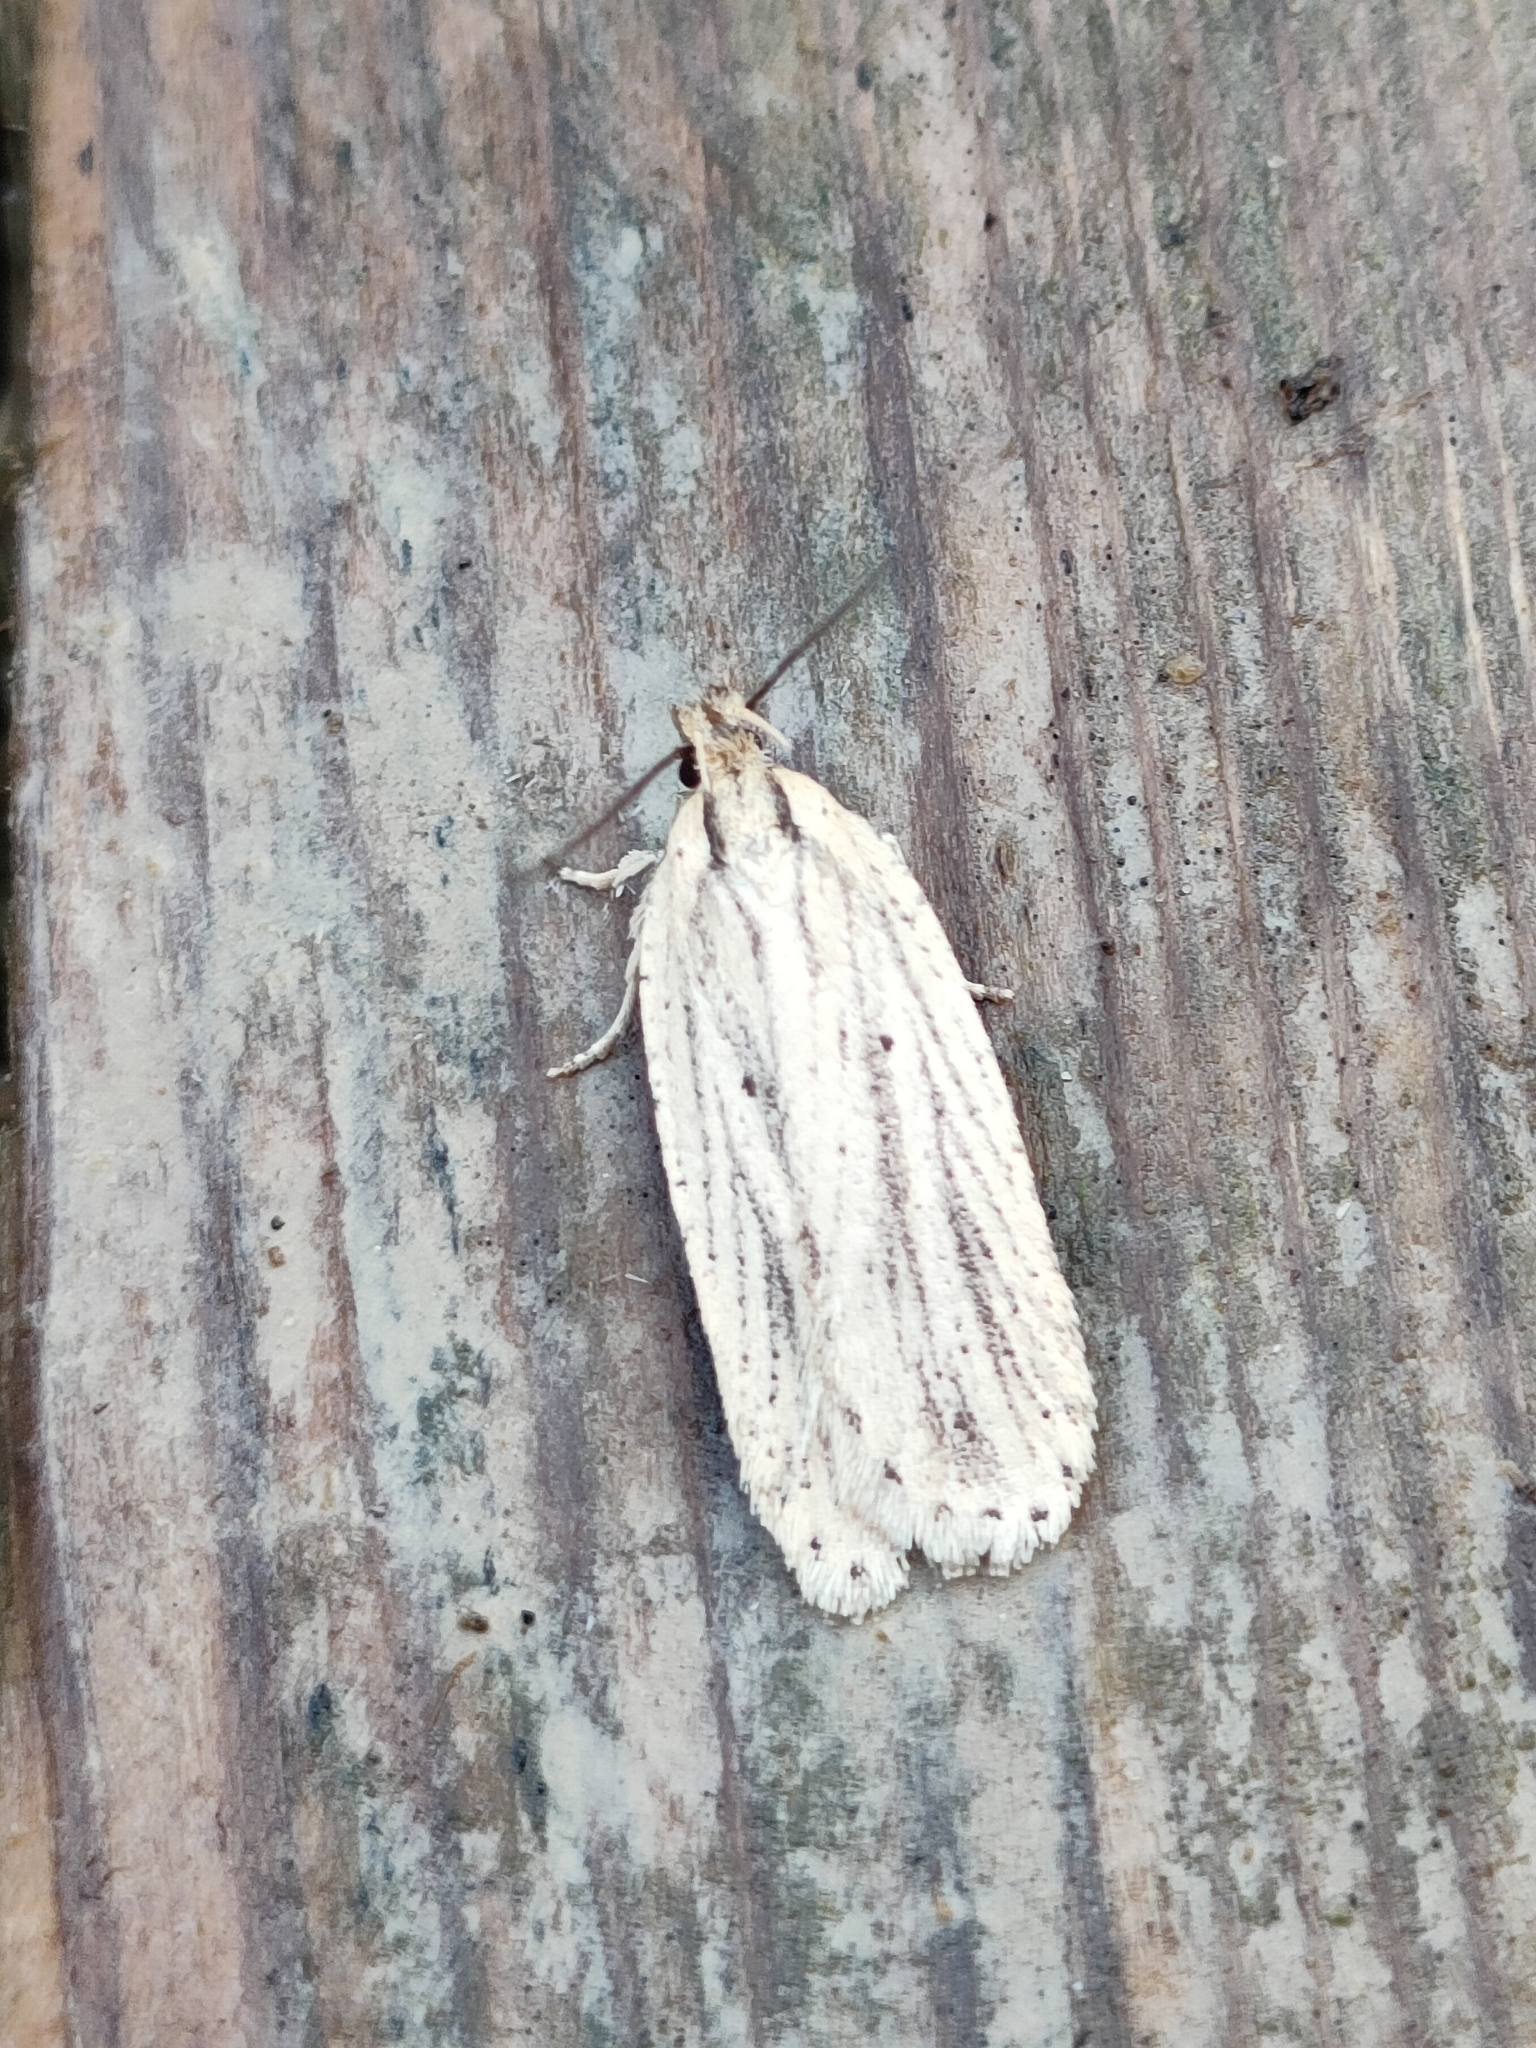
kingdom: Animalia
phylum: Arthropoda
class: Insecta
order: Lepidoptera
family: Depressariidae
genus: Agonopterix
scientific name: Agonopterix
